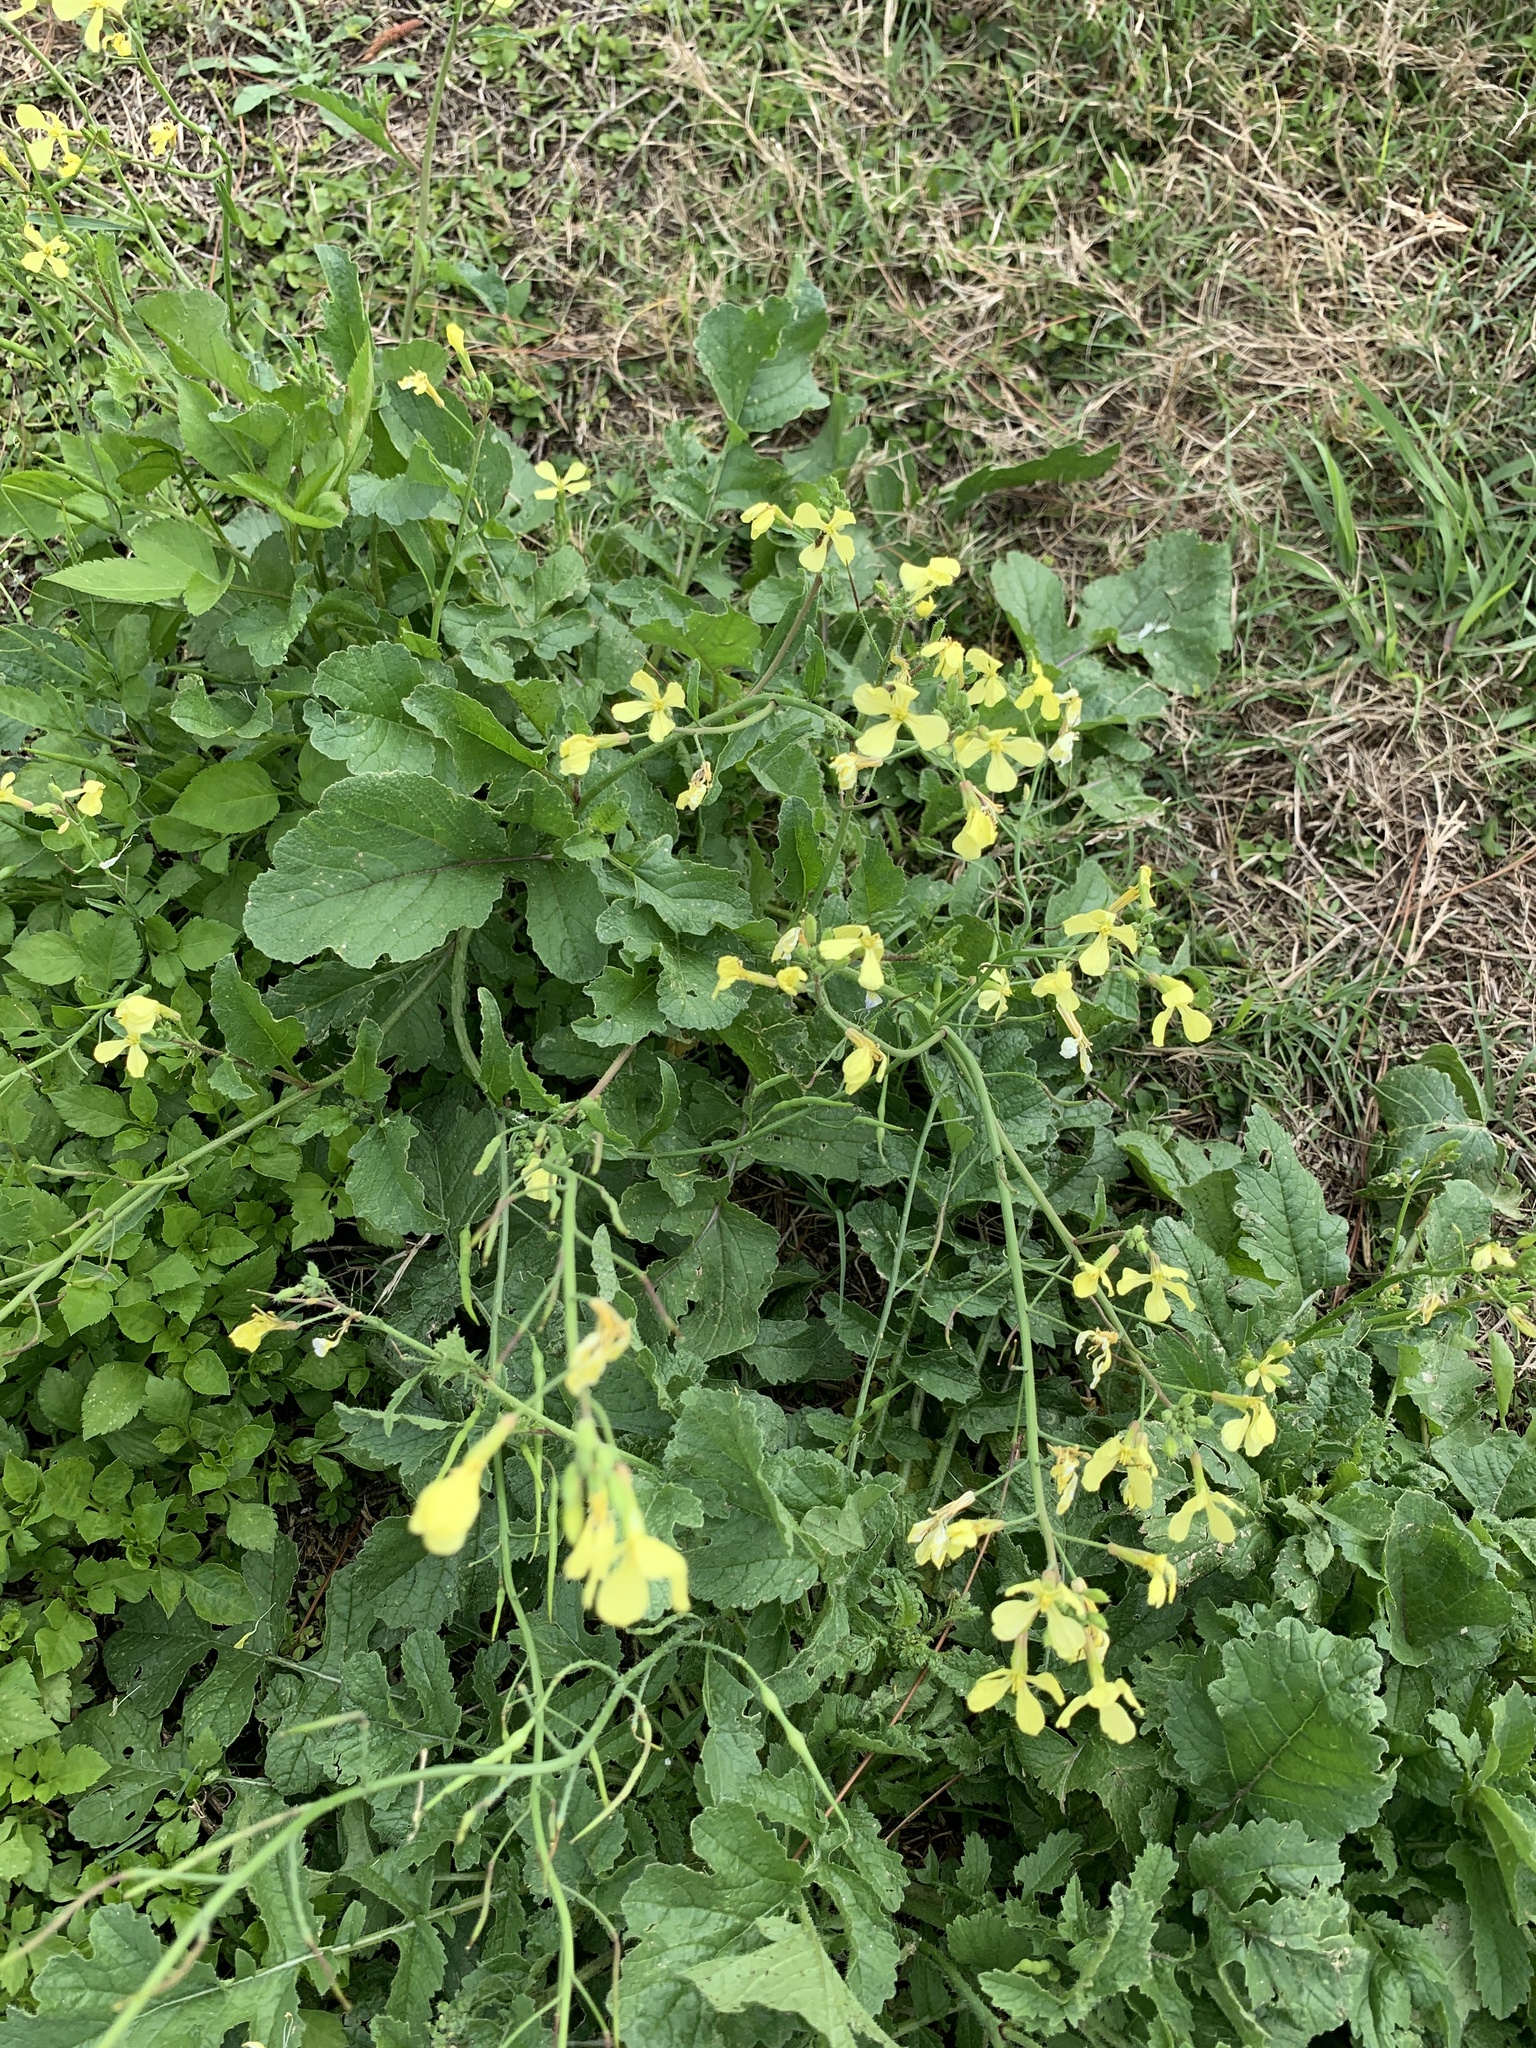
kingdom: Plantae
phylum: Tracheophyta
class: Magnoliopsida
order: Brassicales
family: Brassicaceae
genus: Raphanus
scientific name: Raphanus raphanistrum
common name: Wild radish
